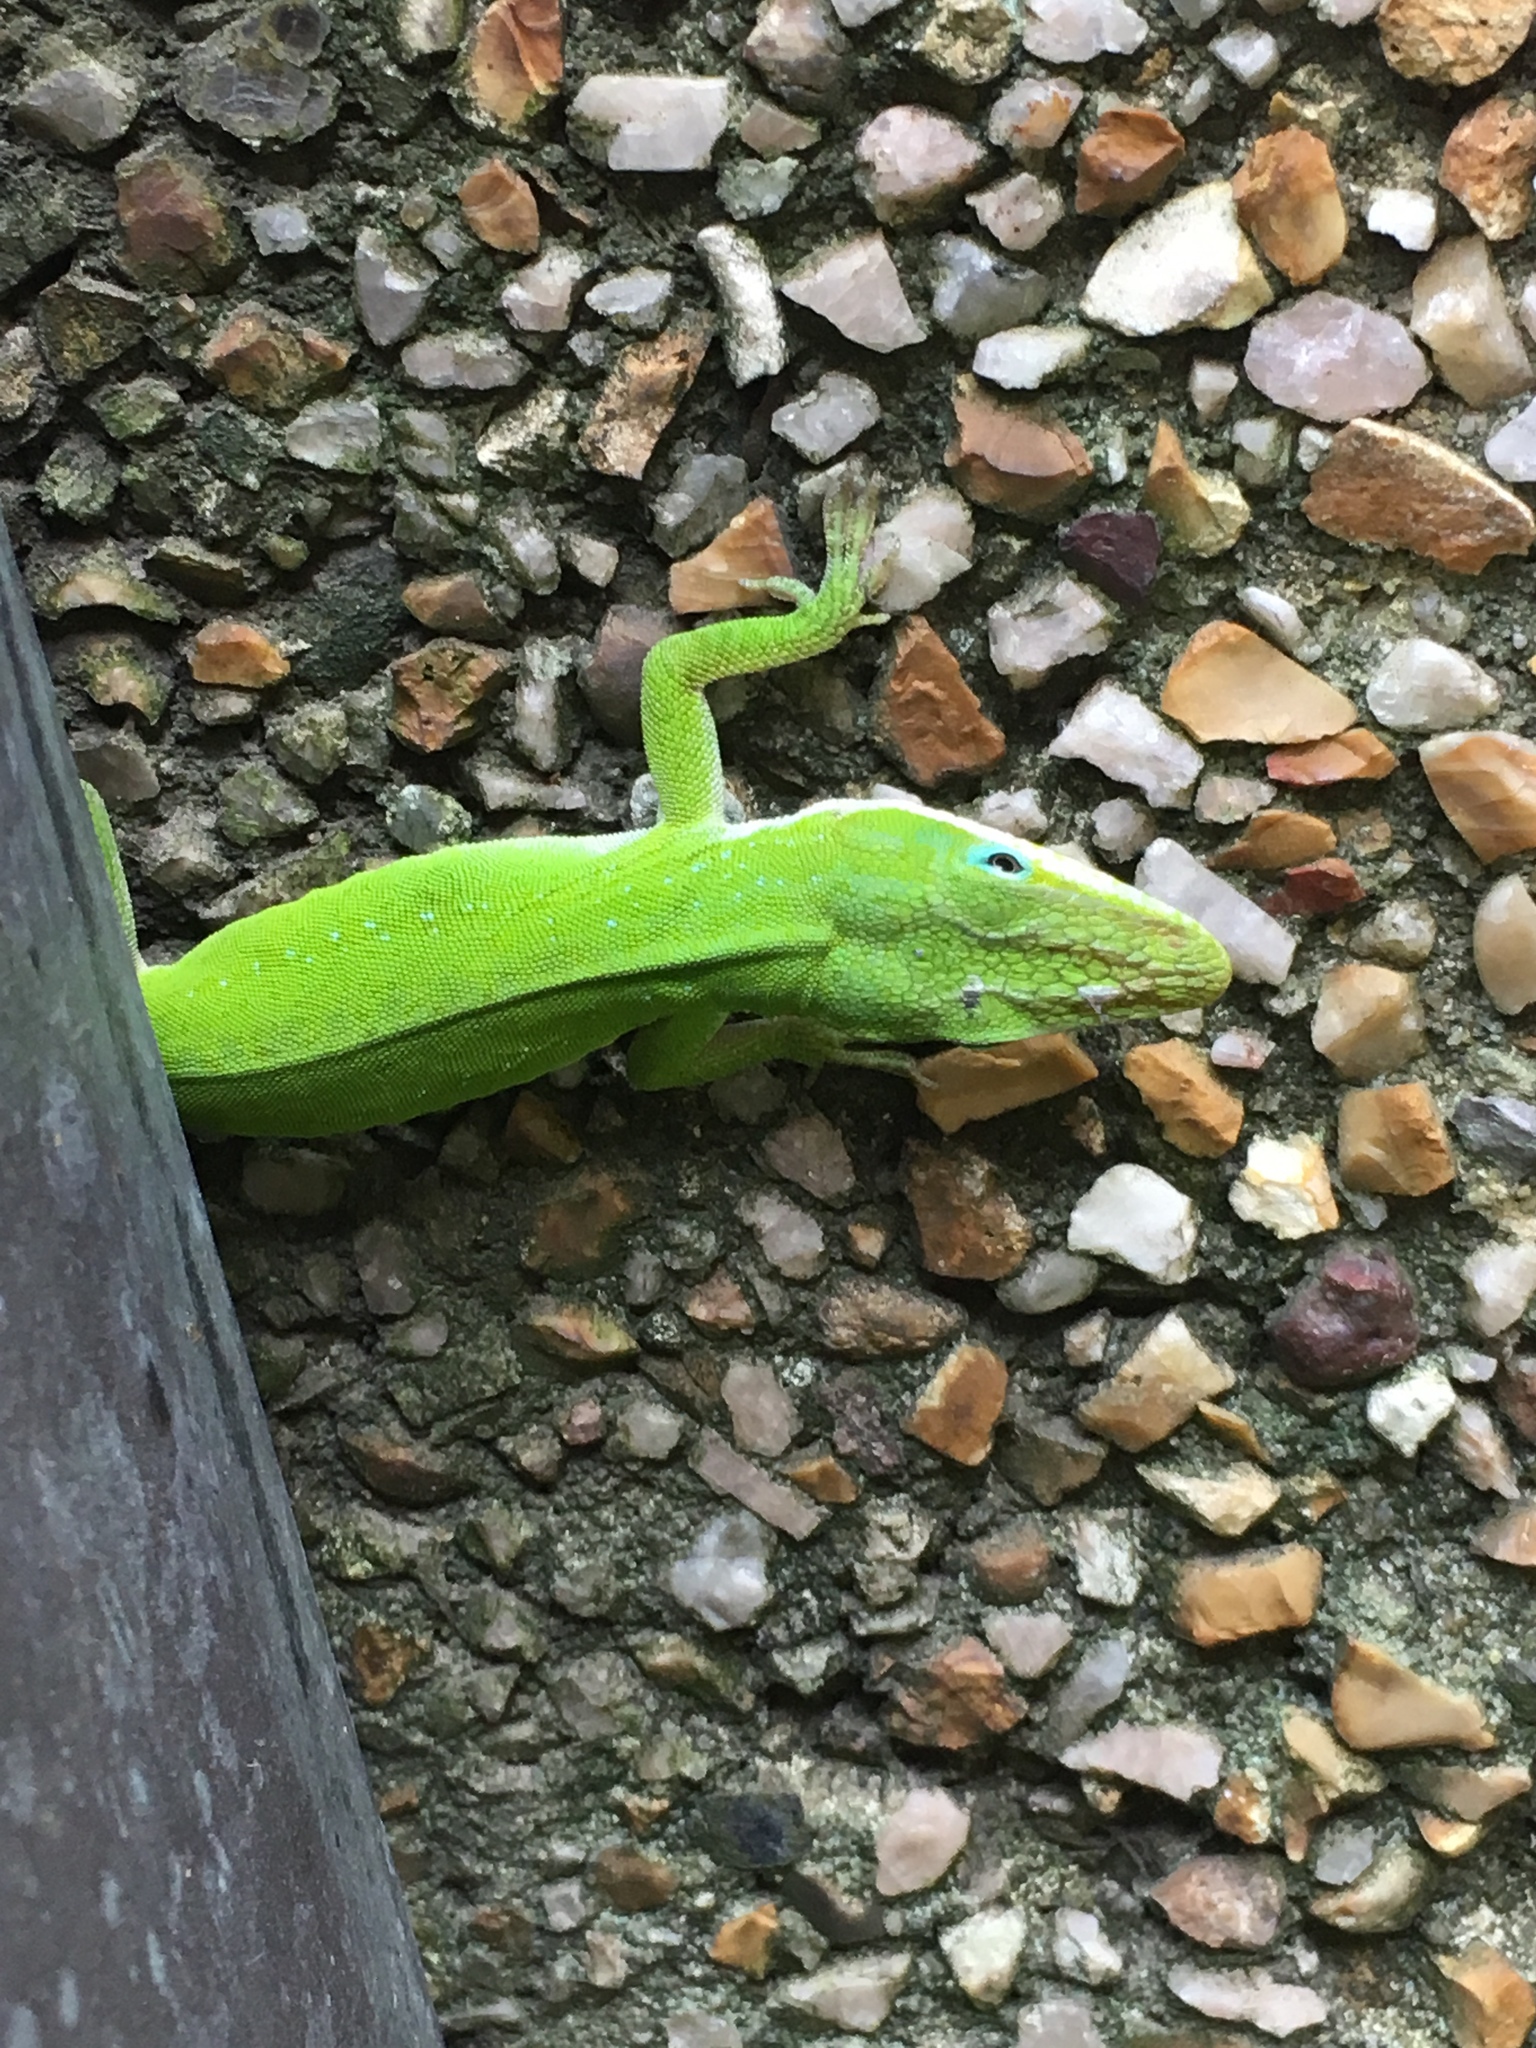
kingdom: Animalia
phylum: Chordata
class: Squamata
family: Dactyloidae
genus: Anolis
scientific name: Anolis carolinensis
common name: Green anole
